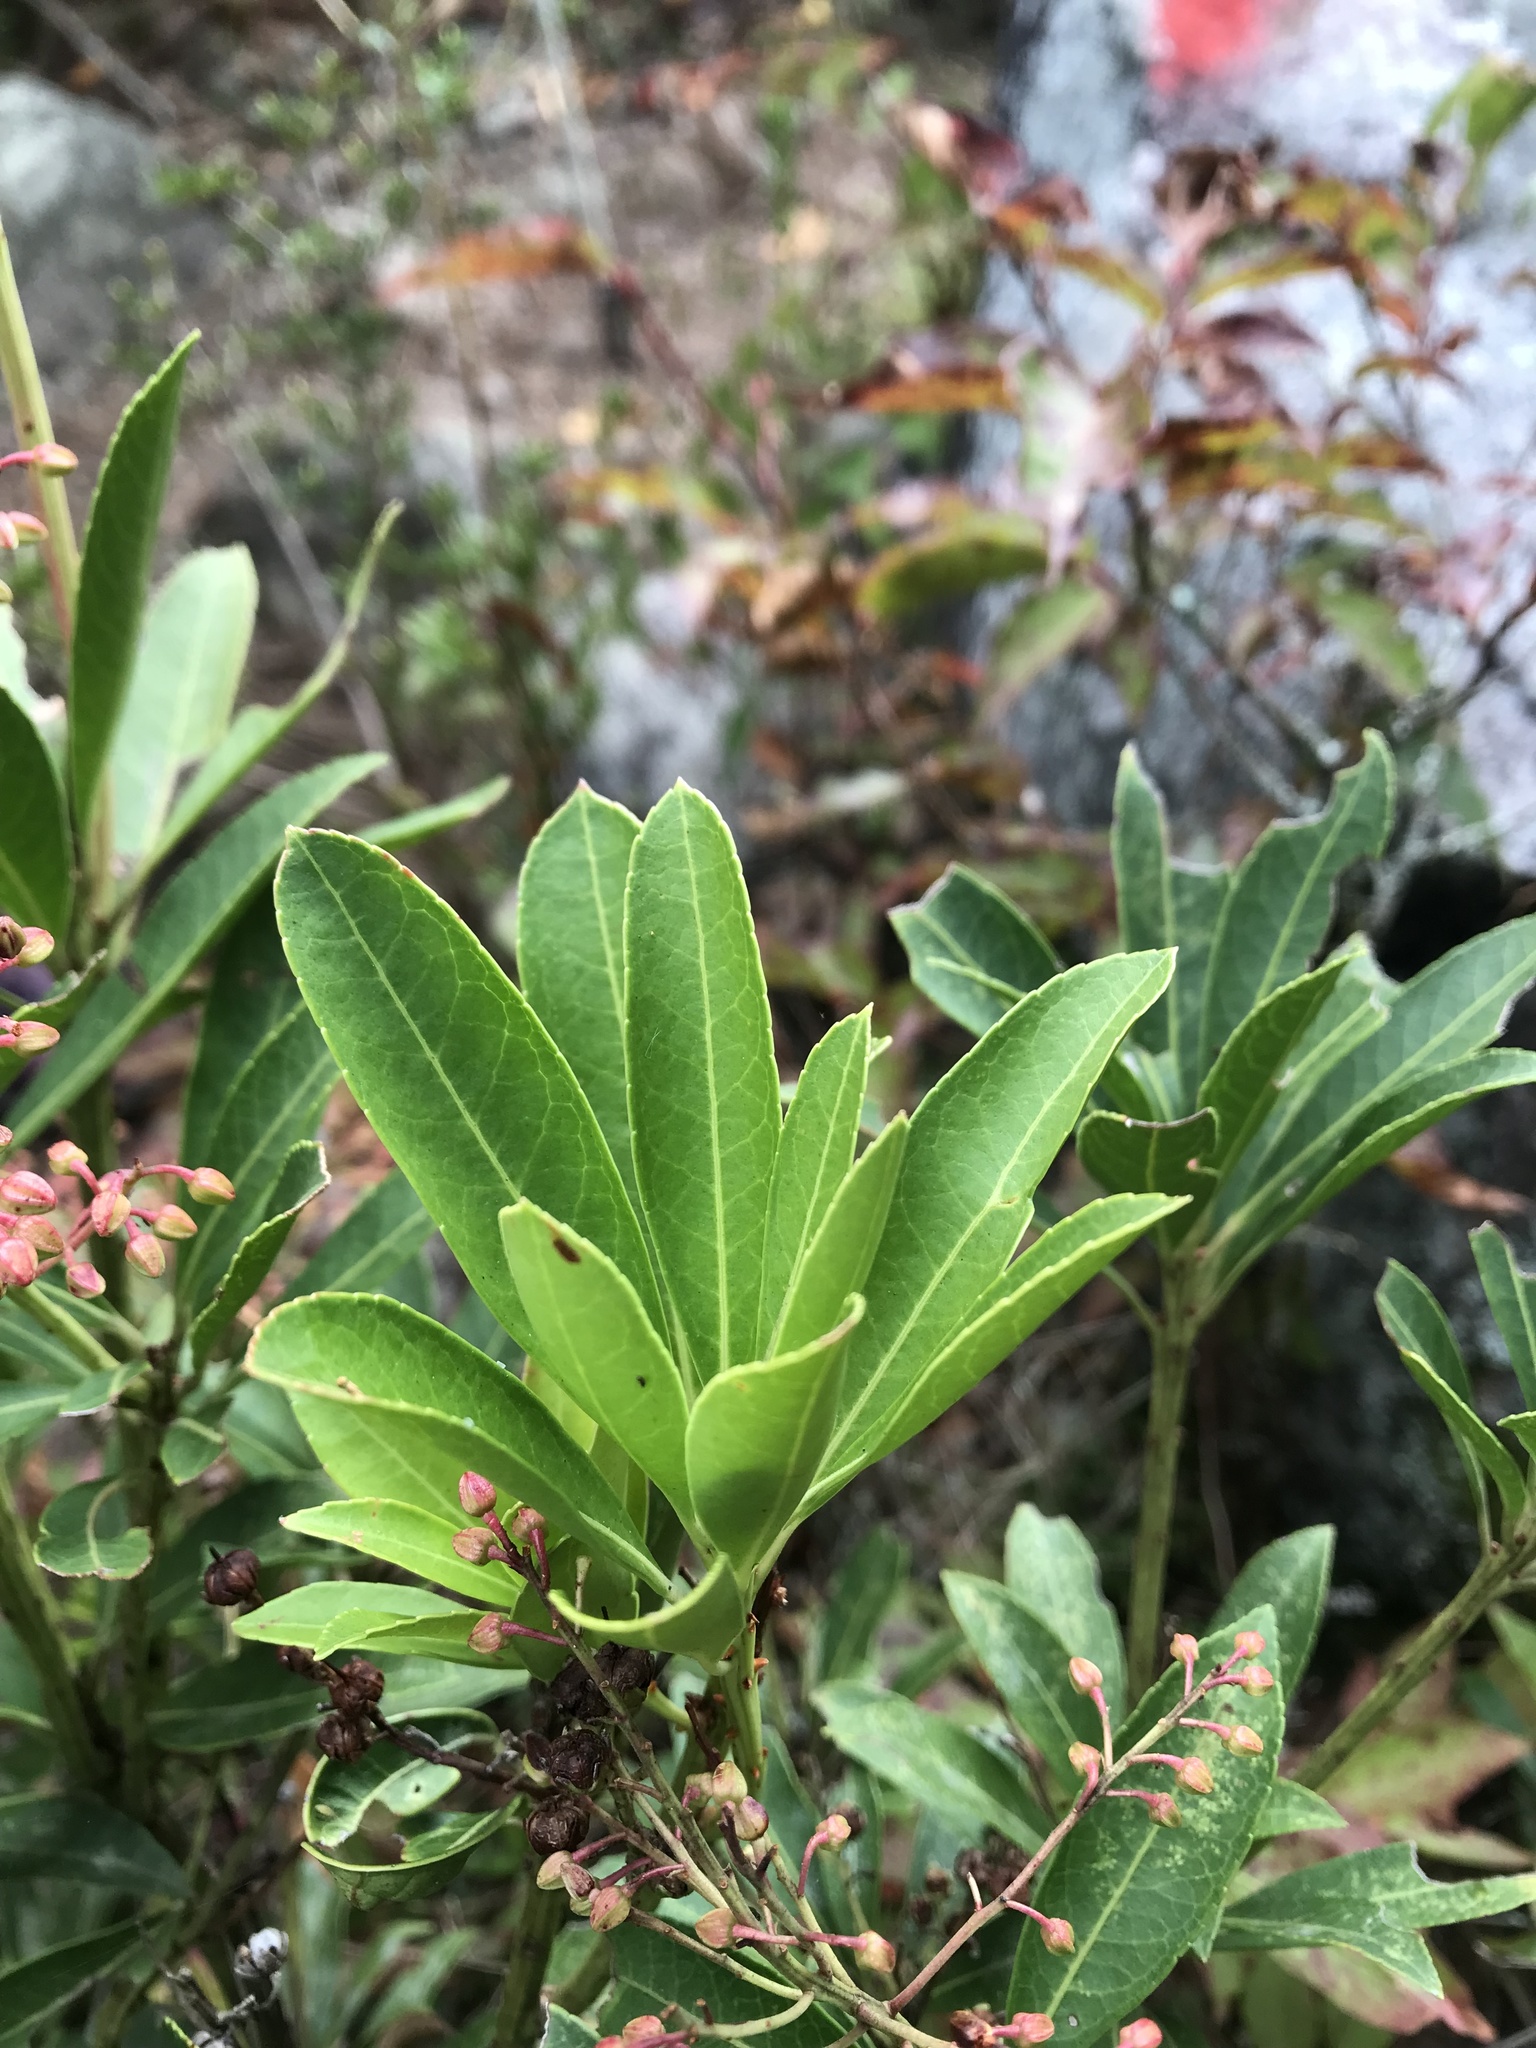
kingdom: Plantae
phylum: Tracheophyta
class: Magnoliopsida
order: Ericales
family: Ericaceae
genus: Pieris
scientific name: Pieris japonica
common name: Japanese pieris
